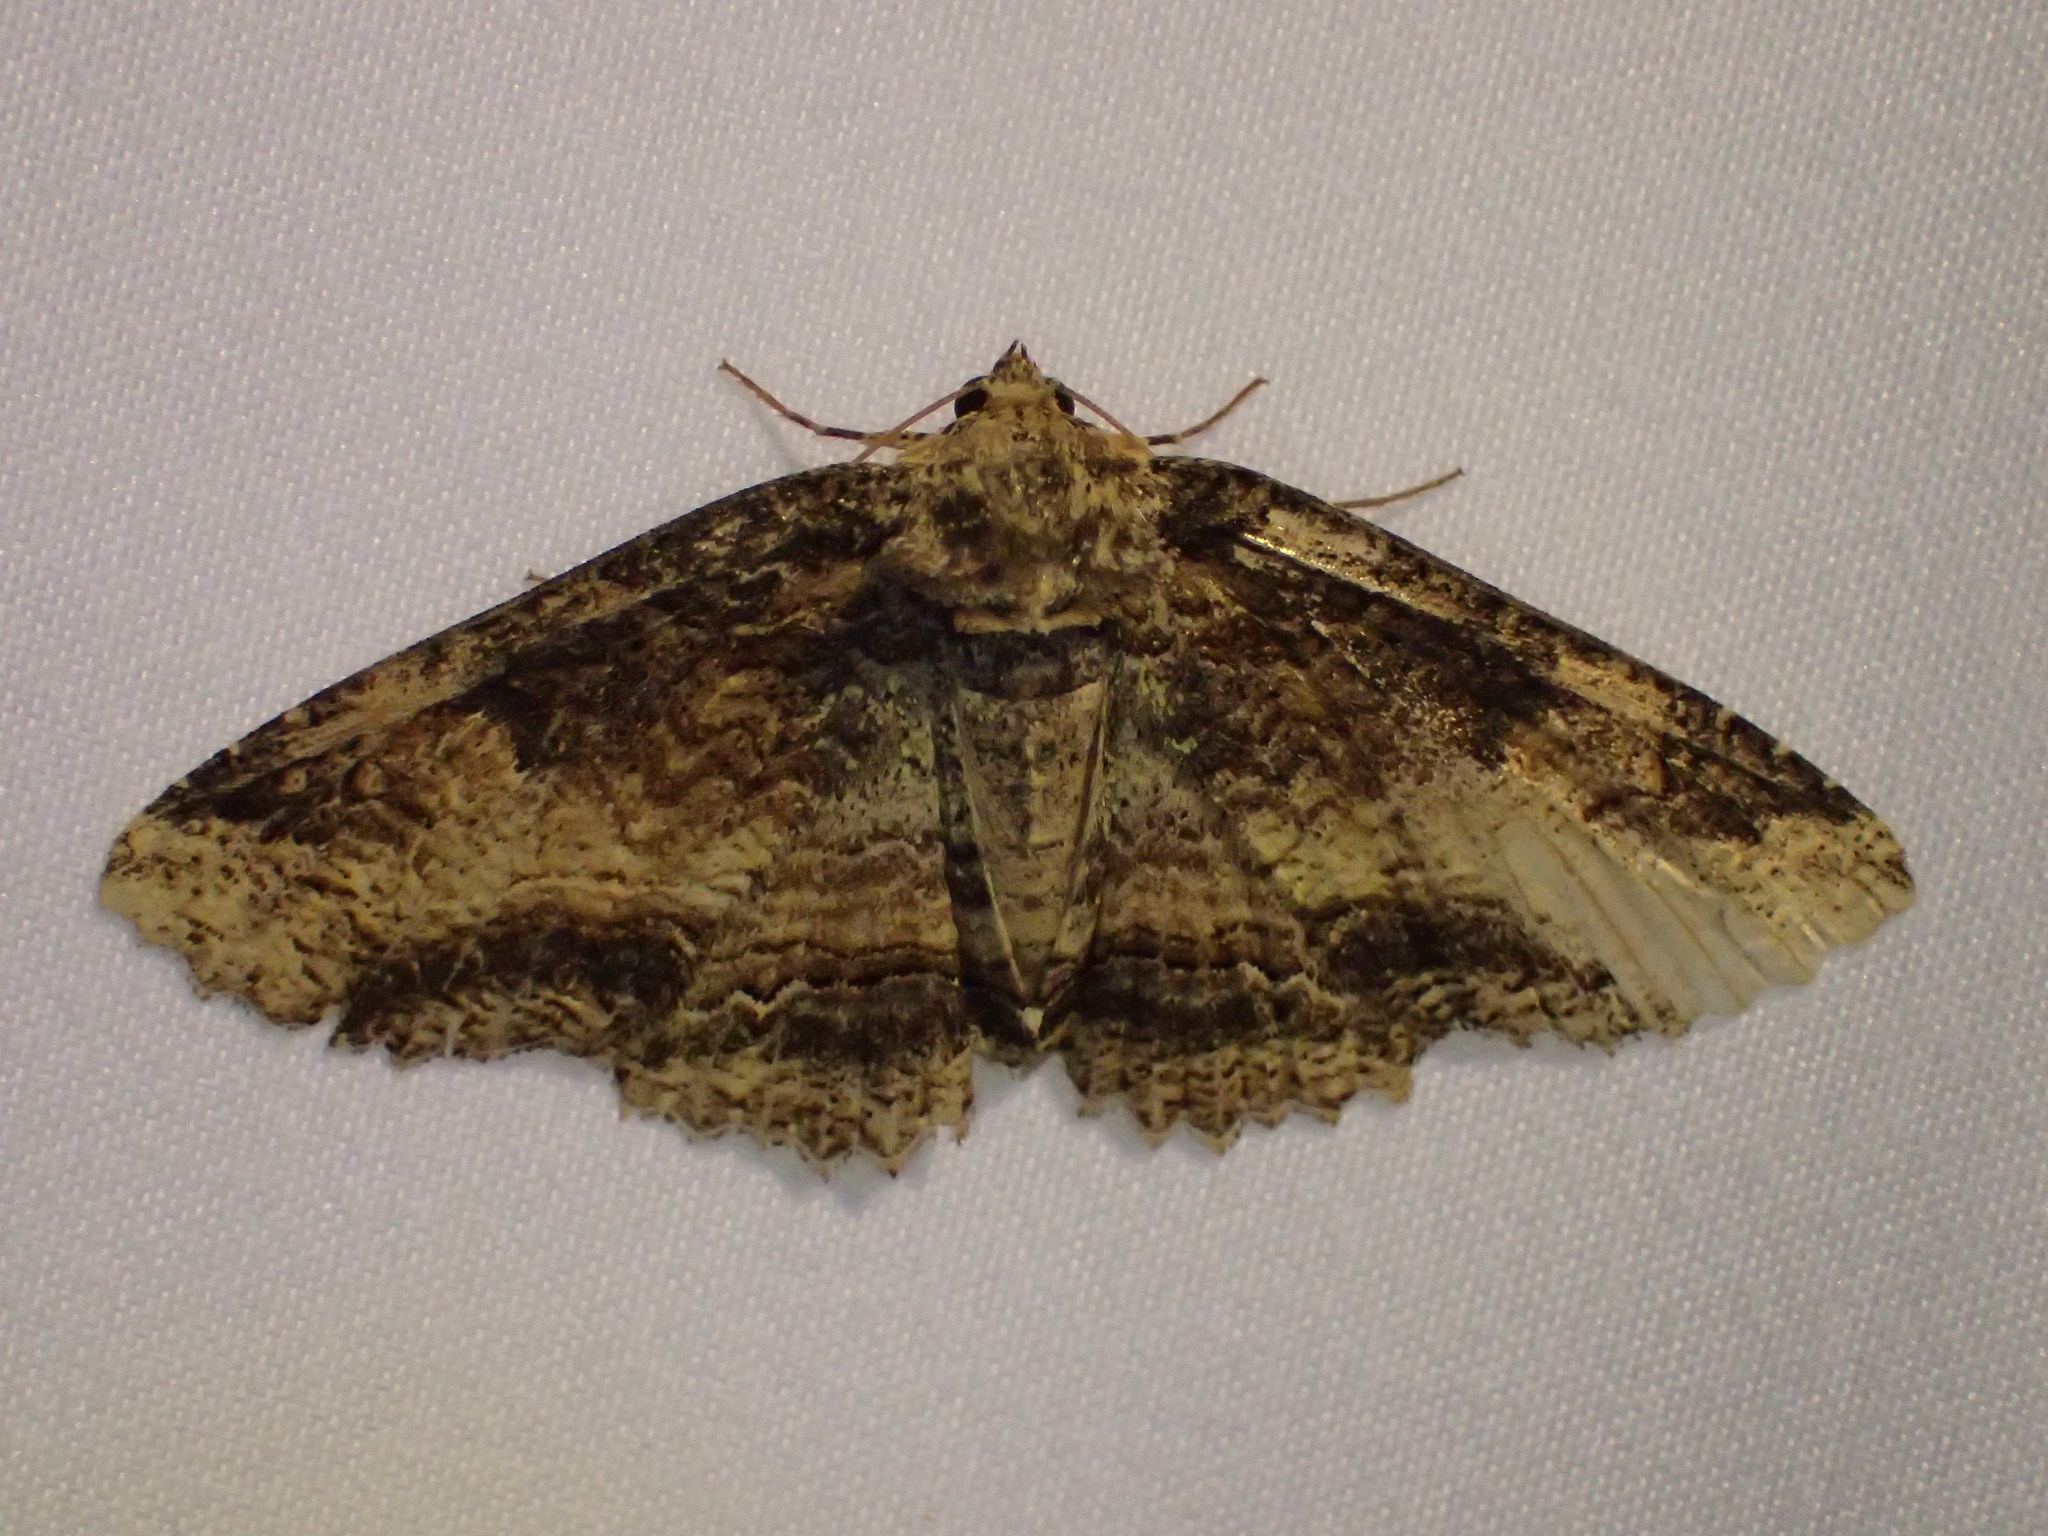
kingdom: Animalia
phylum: Arthropoda
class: Insecta
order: Lepidoptera
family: Erebidae
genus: Zale
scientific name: Zale minerea
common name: Colorful zale moth
